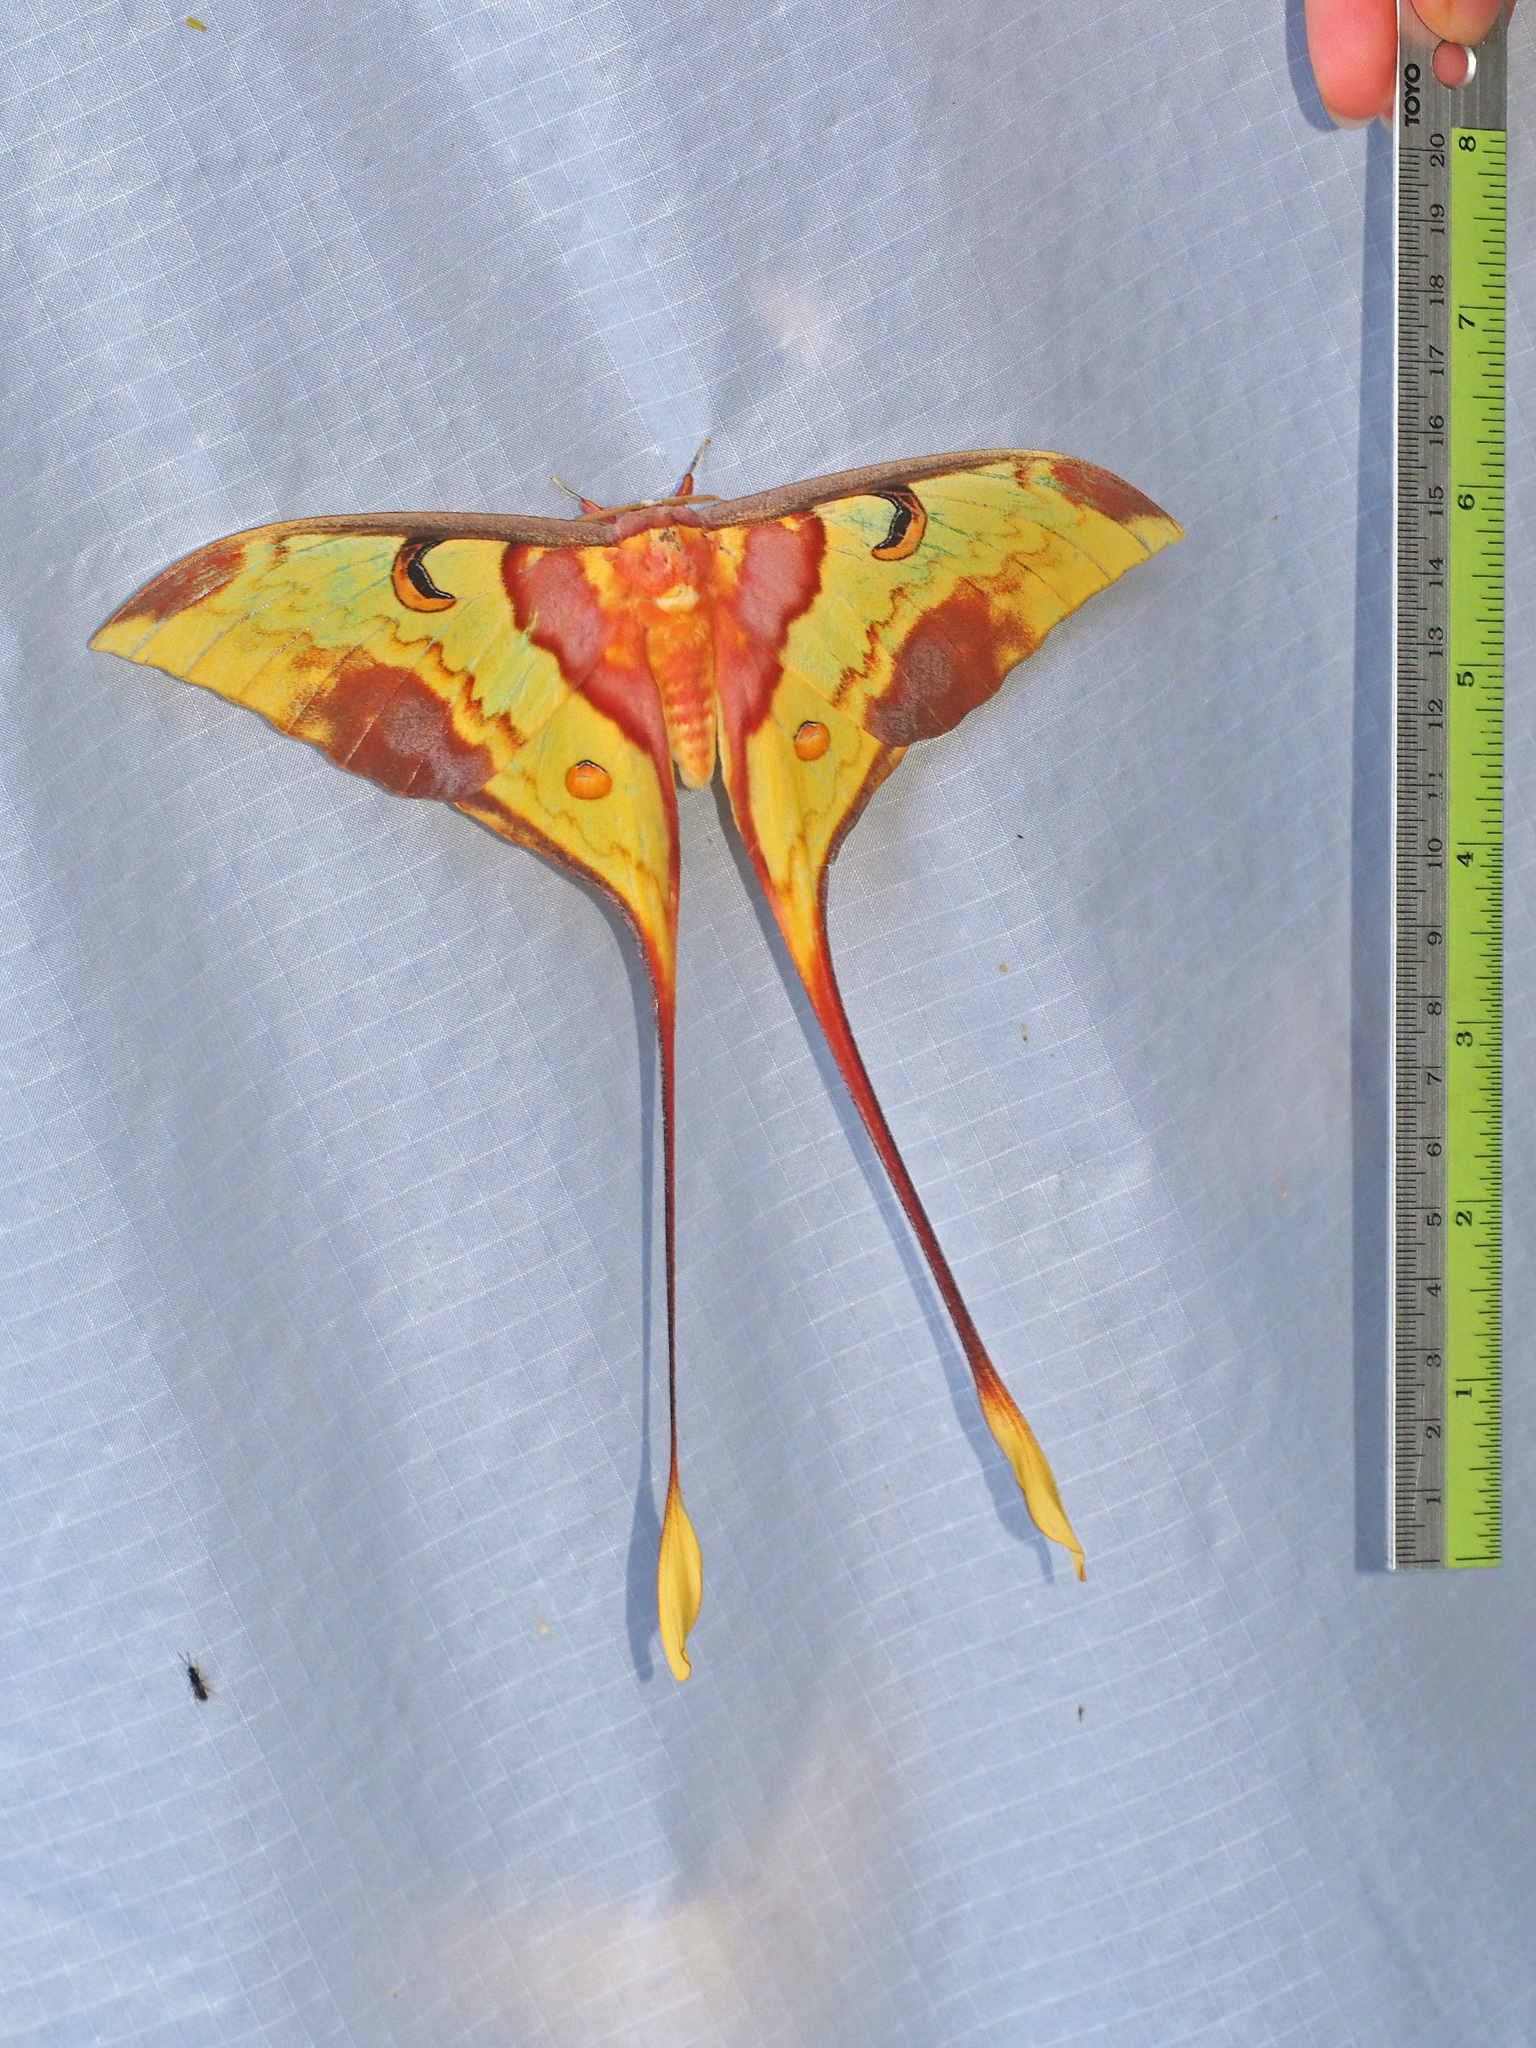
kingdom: Animalia
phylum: Arthropoda
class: Insecta
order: Lepidoptera
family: Saturniidae
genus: Actias
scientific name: Actias maenas
